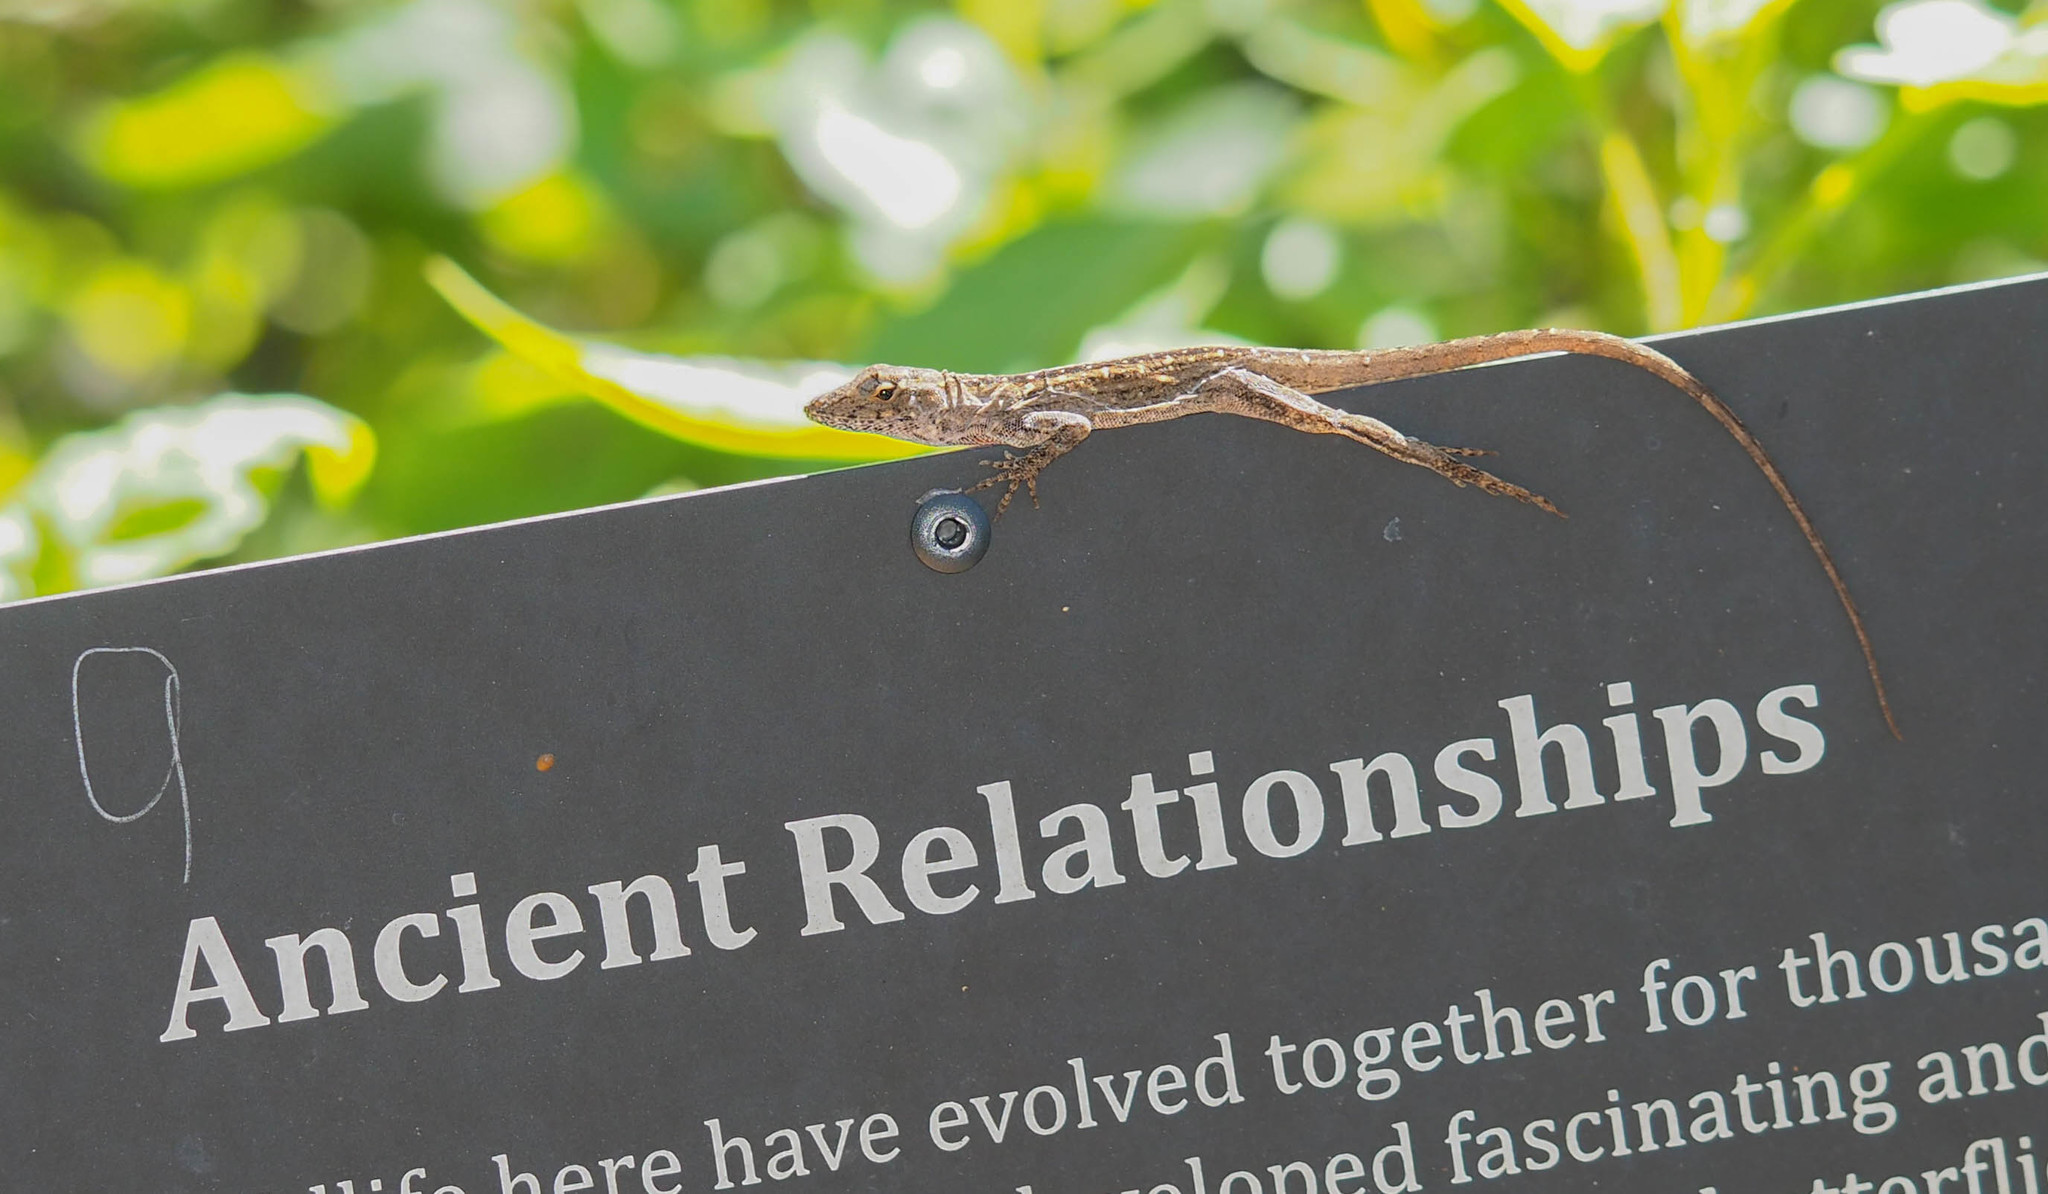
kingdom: Animalia
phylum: Chordata
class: Squamata
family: Dactyloidae
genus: Anolis
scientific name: Anolis sagrei
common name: Brown anole
